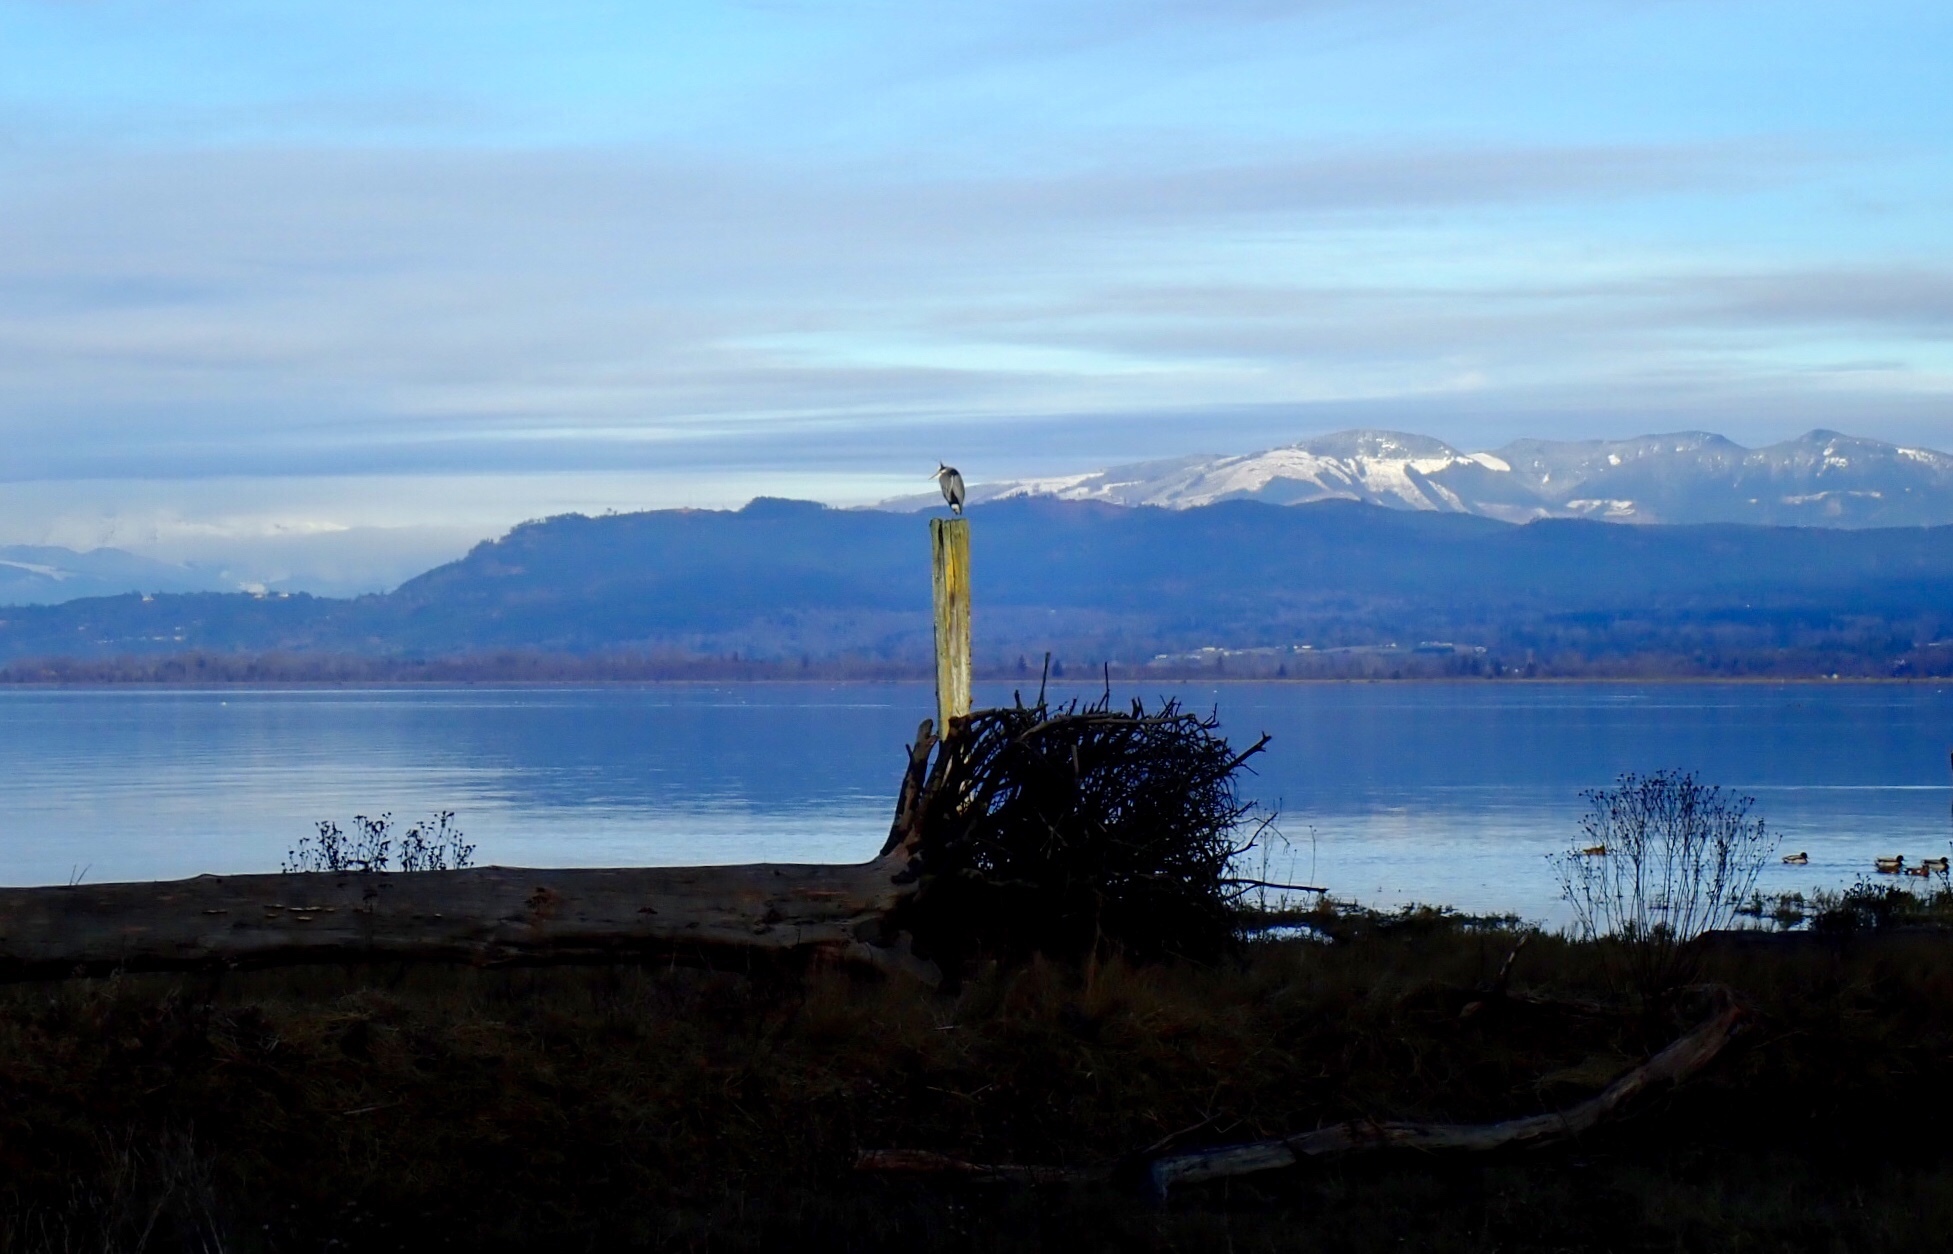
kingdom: Animalia
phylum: Chordata
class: Aves
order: Pelecaniformes
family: Ardeidae
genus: Ardea
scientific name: Ardea herodias
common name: Great blue heron
